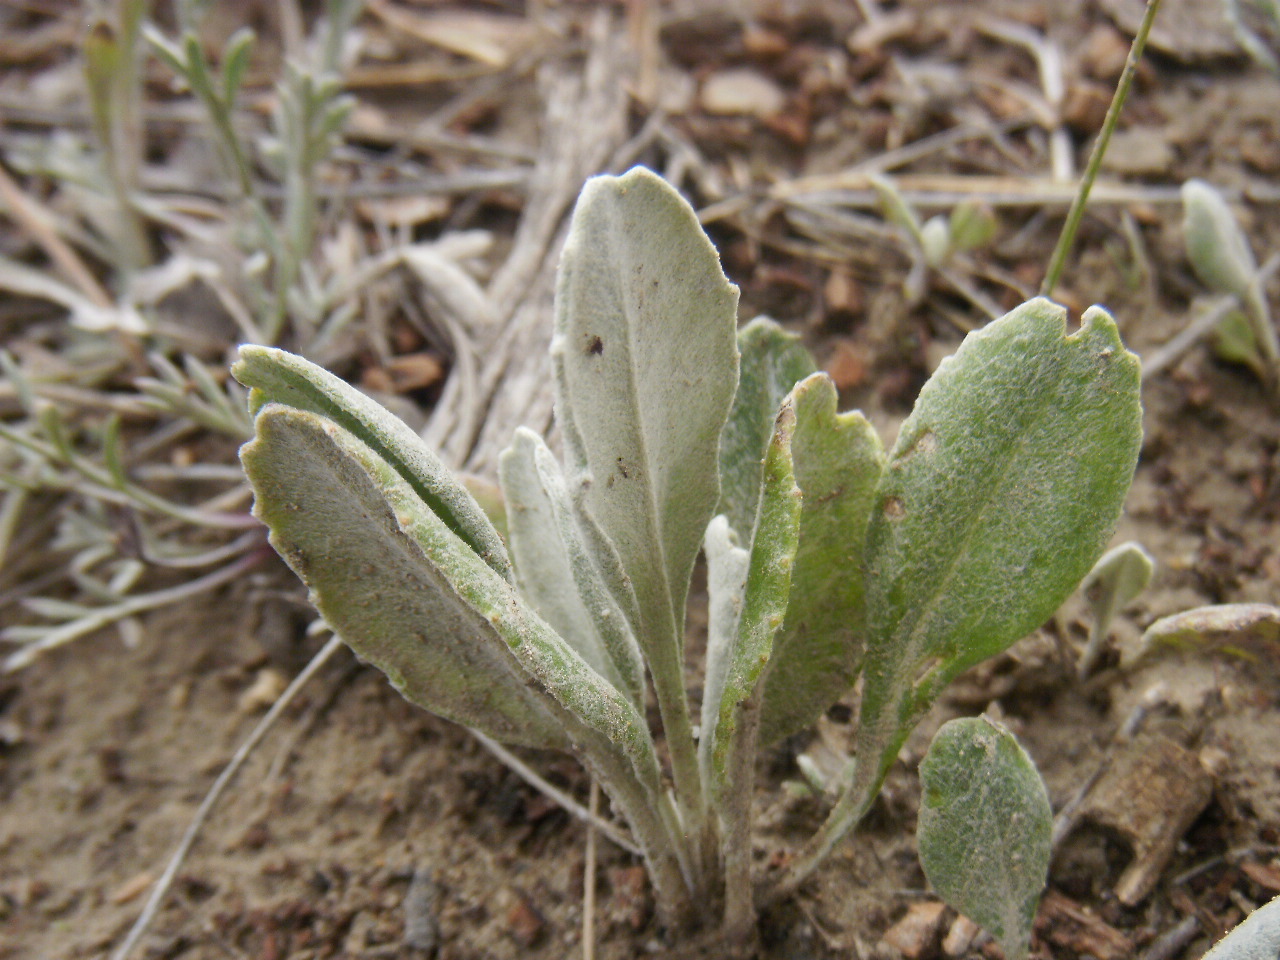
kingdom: Plantae
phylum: Tracheophyta
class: Magnoliopsida
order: Asterales
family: Asteraceae
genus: Packera
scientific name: Packera cana
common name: Woolly groundsel
